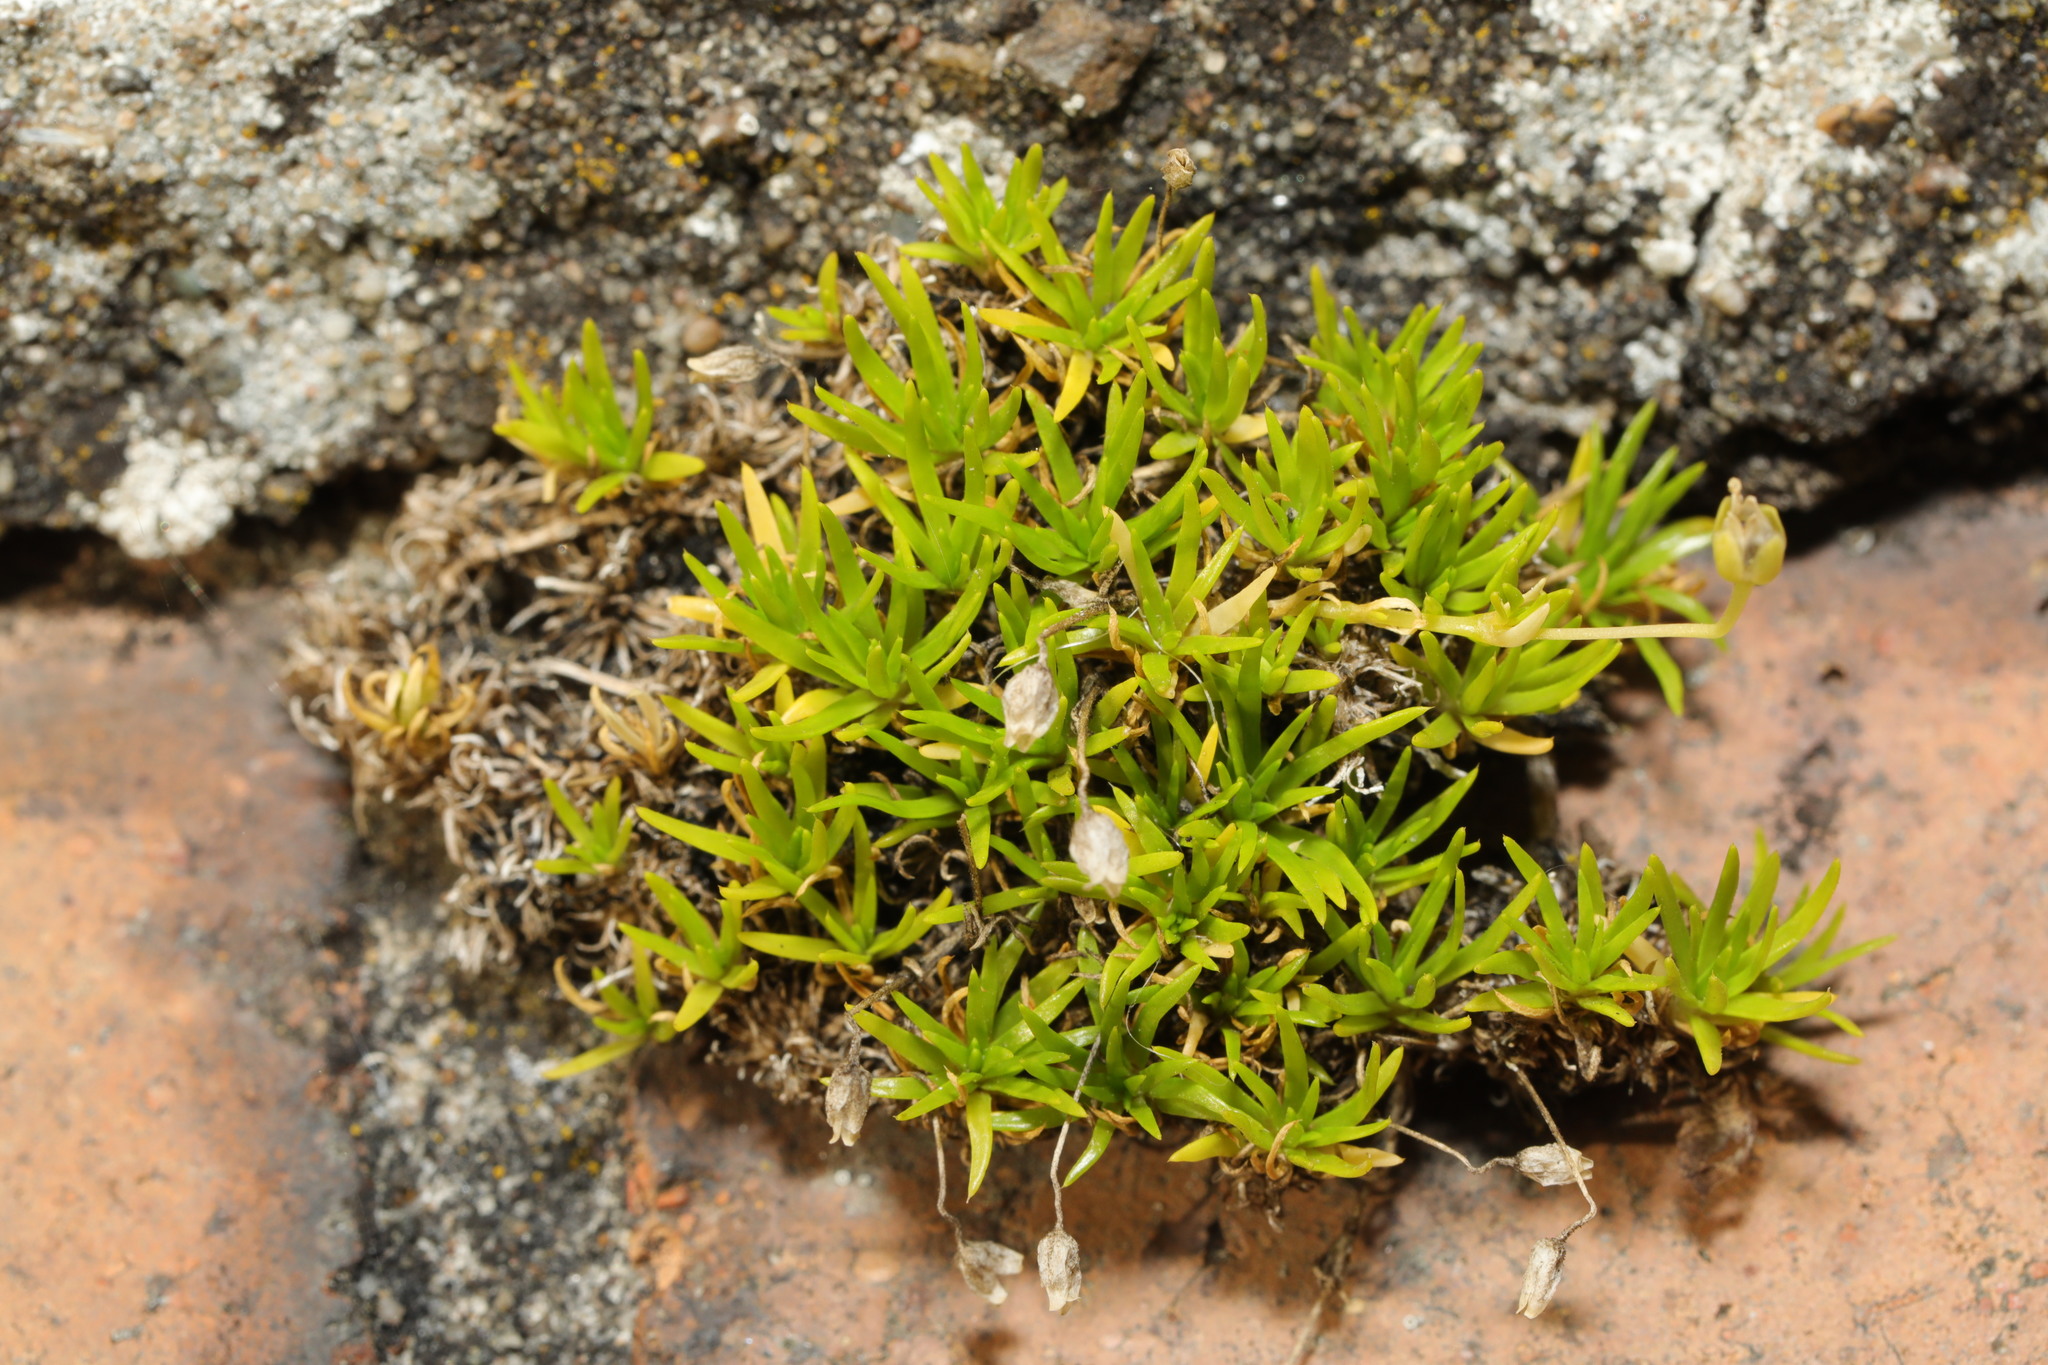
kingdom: Plantae
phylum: Tracheophyta
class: Magnoliopsida
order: Caryophyllales
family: Caryophyllaceae
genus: Sagina
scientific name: Sagina procumbens
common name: Procumbent pearlwort
